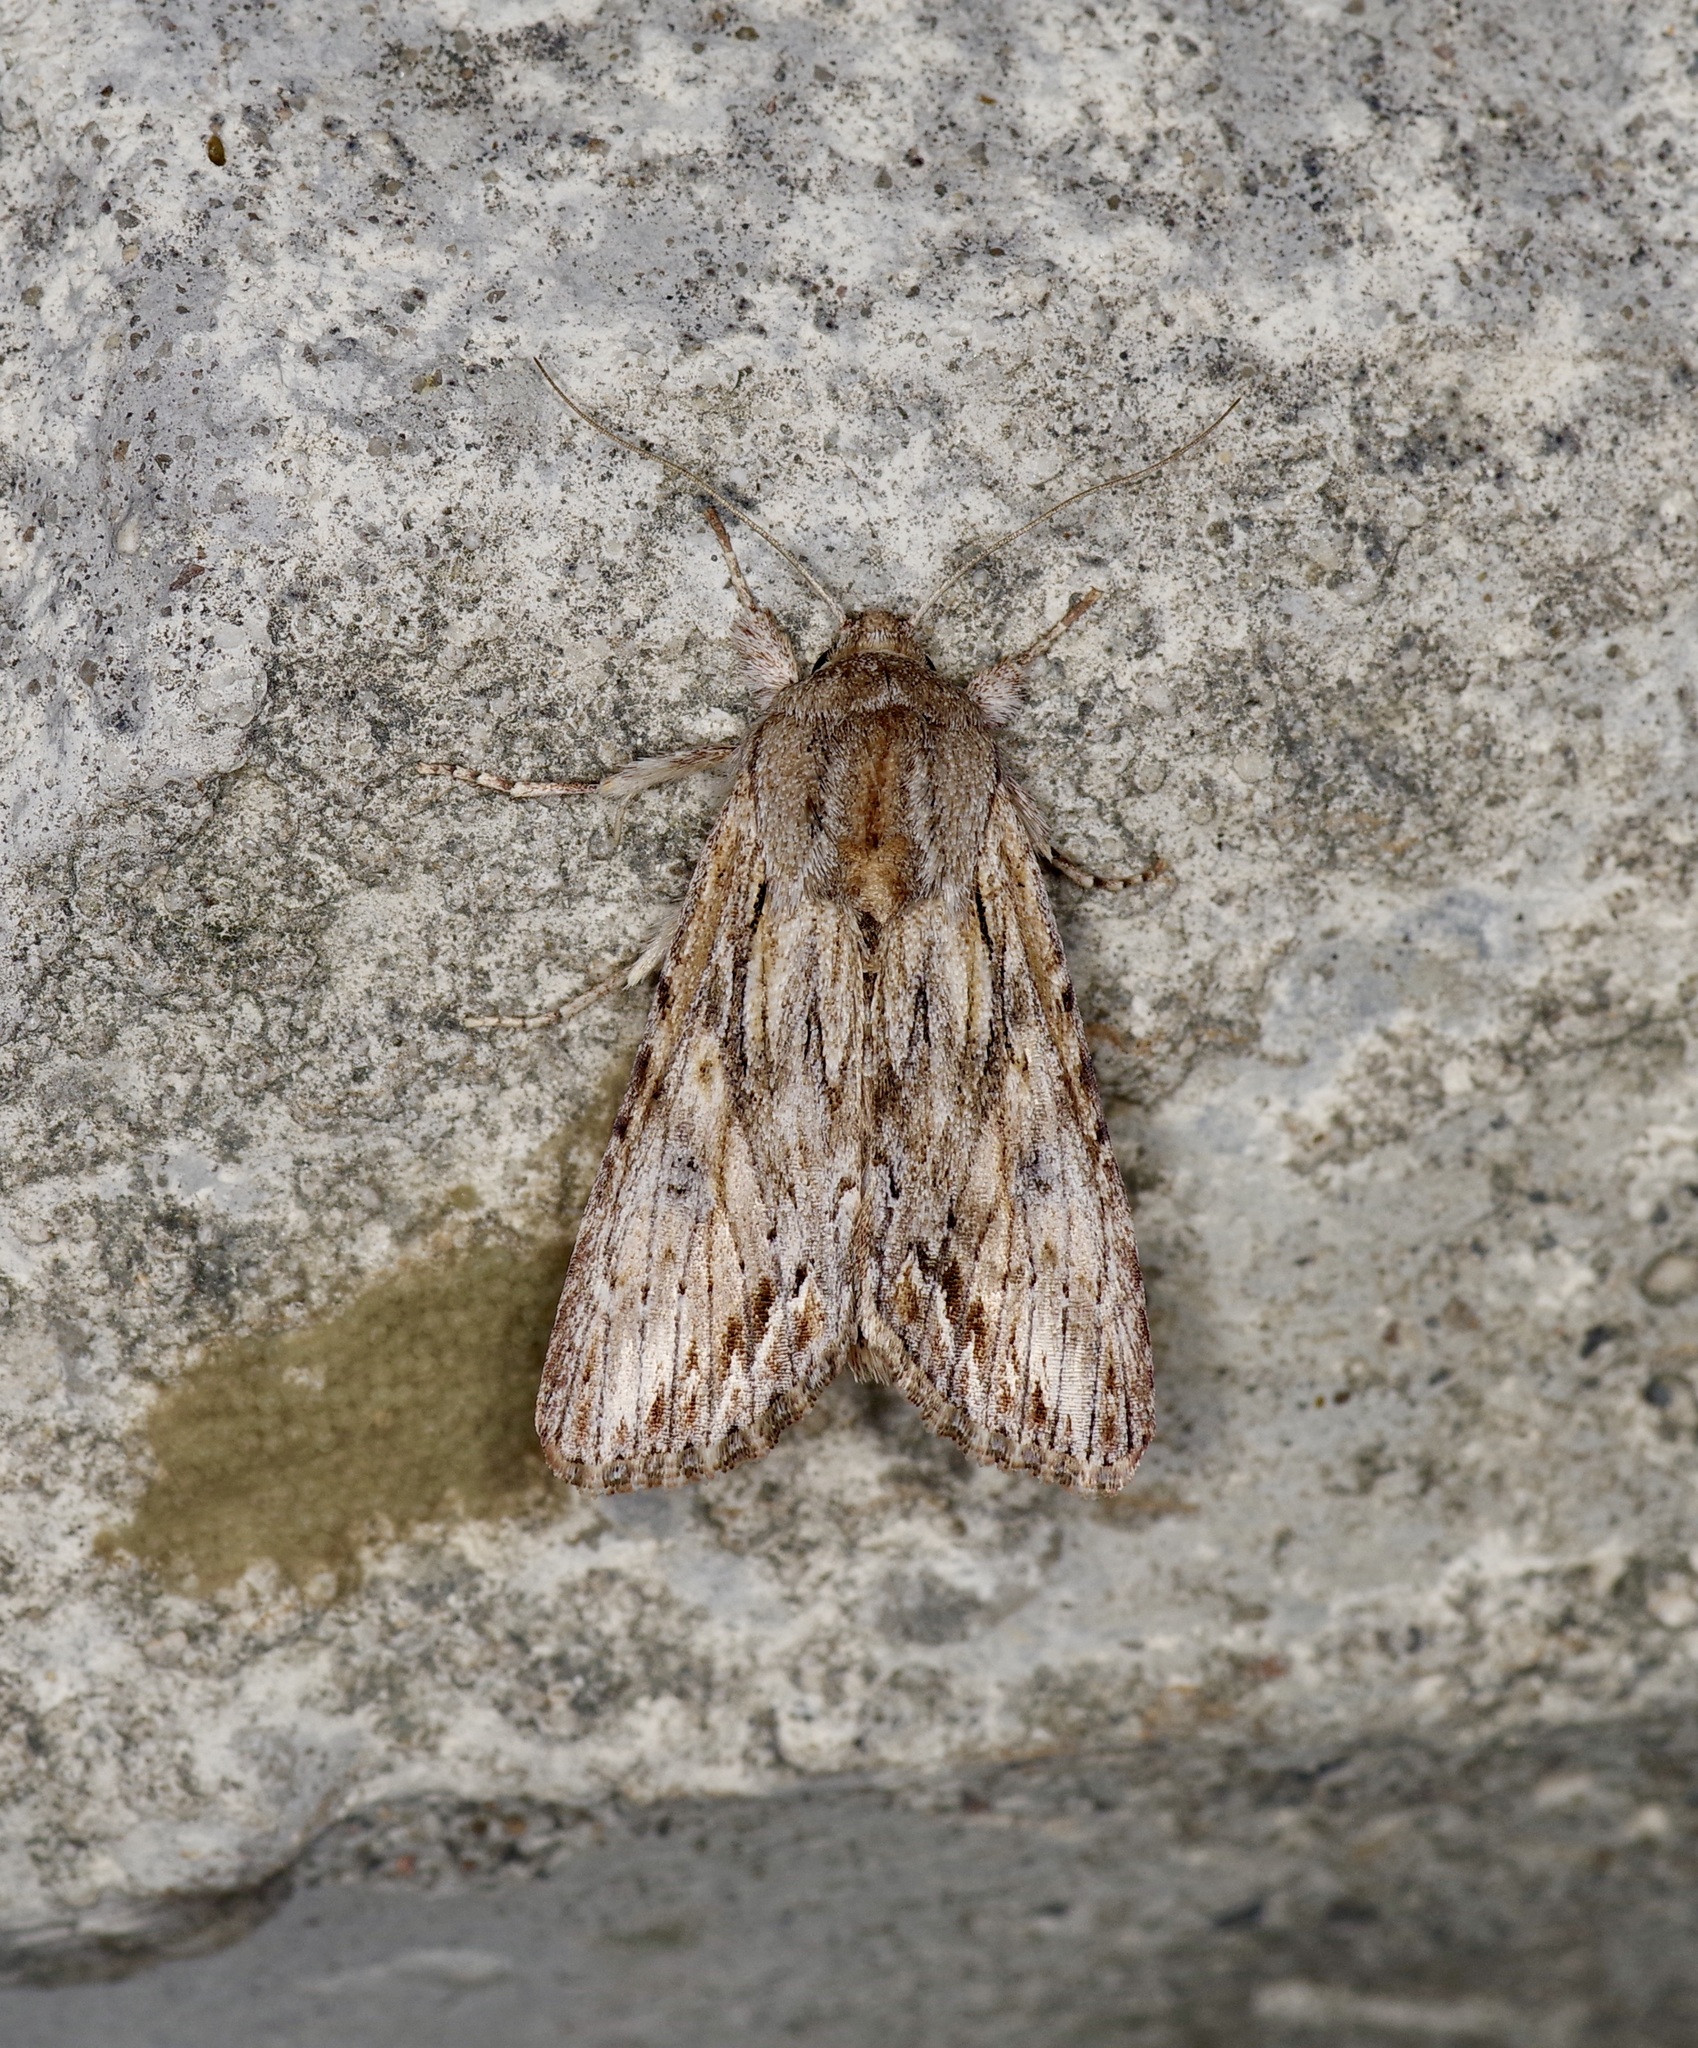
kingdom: Animalia
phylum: Arthropoda
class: Insecta
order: Lepidoptera
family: Noctuidae
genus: Spodoptera
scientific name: Spodoptera eridania
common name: Southern army worm
